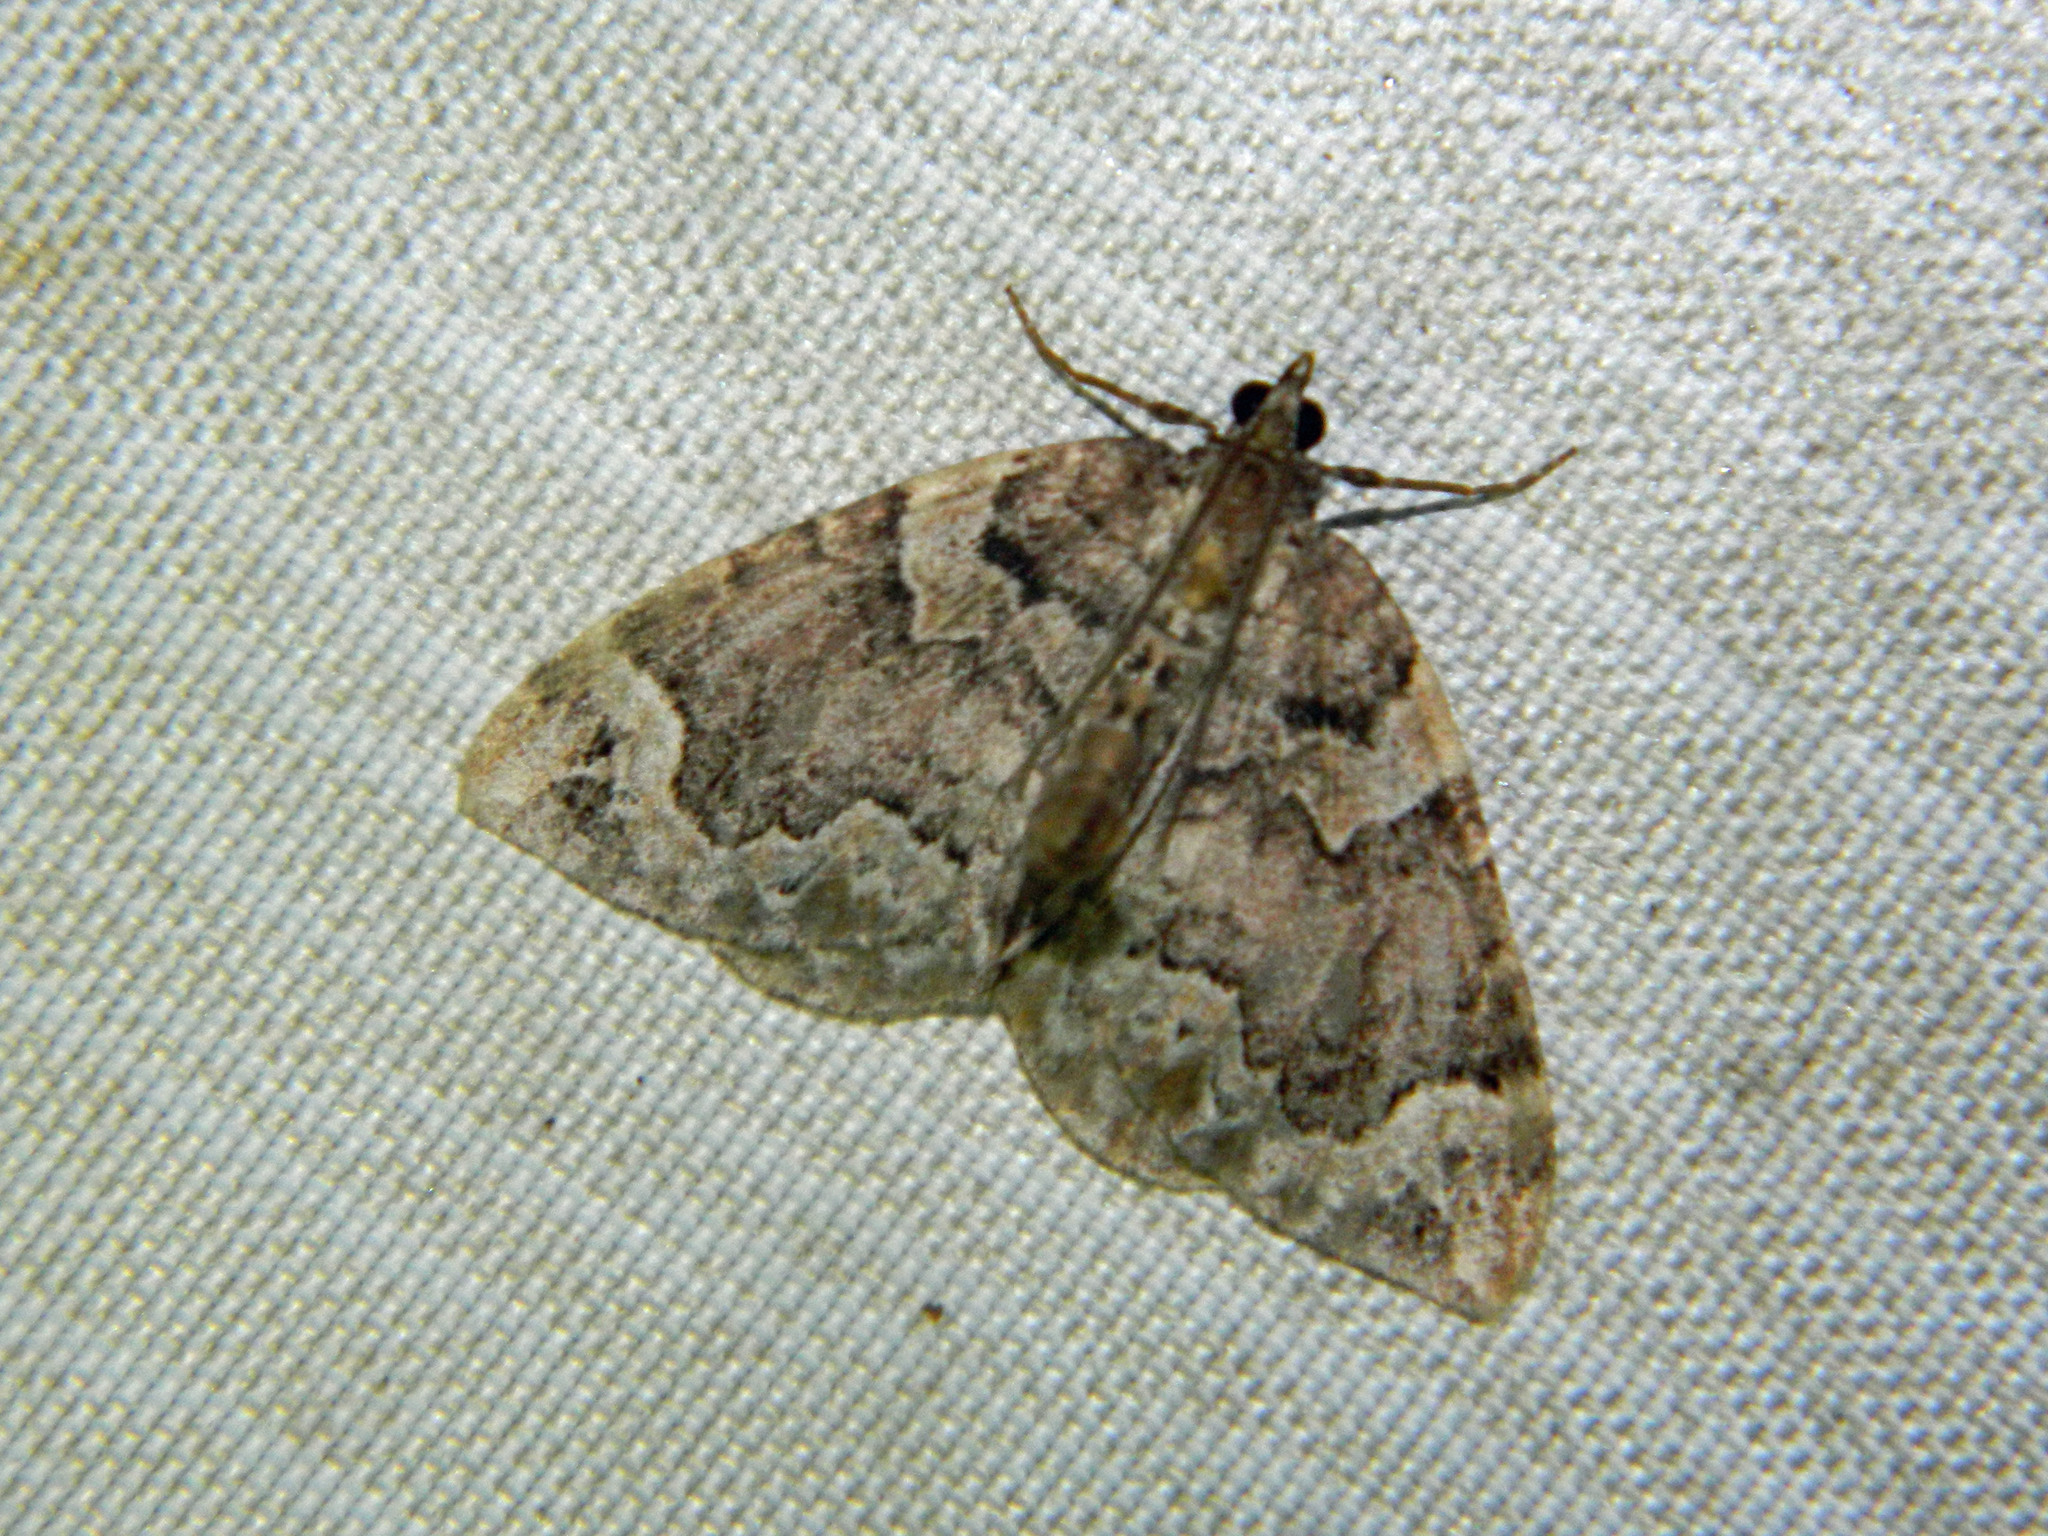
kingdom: Animalia
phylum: Arthropoda
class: Insecta
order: Lepidoptera
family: Geometridae
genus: Eulithis
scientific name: Eulithis serrataria
